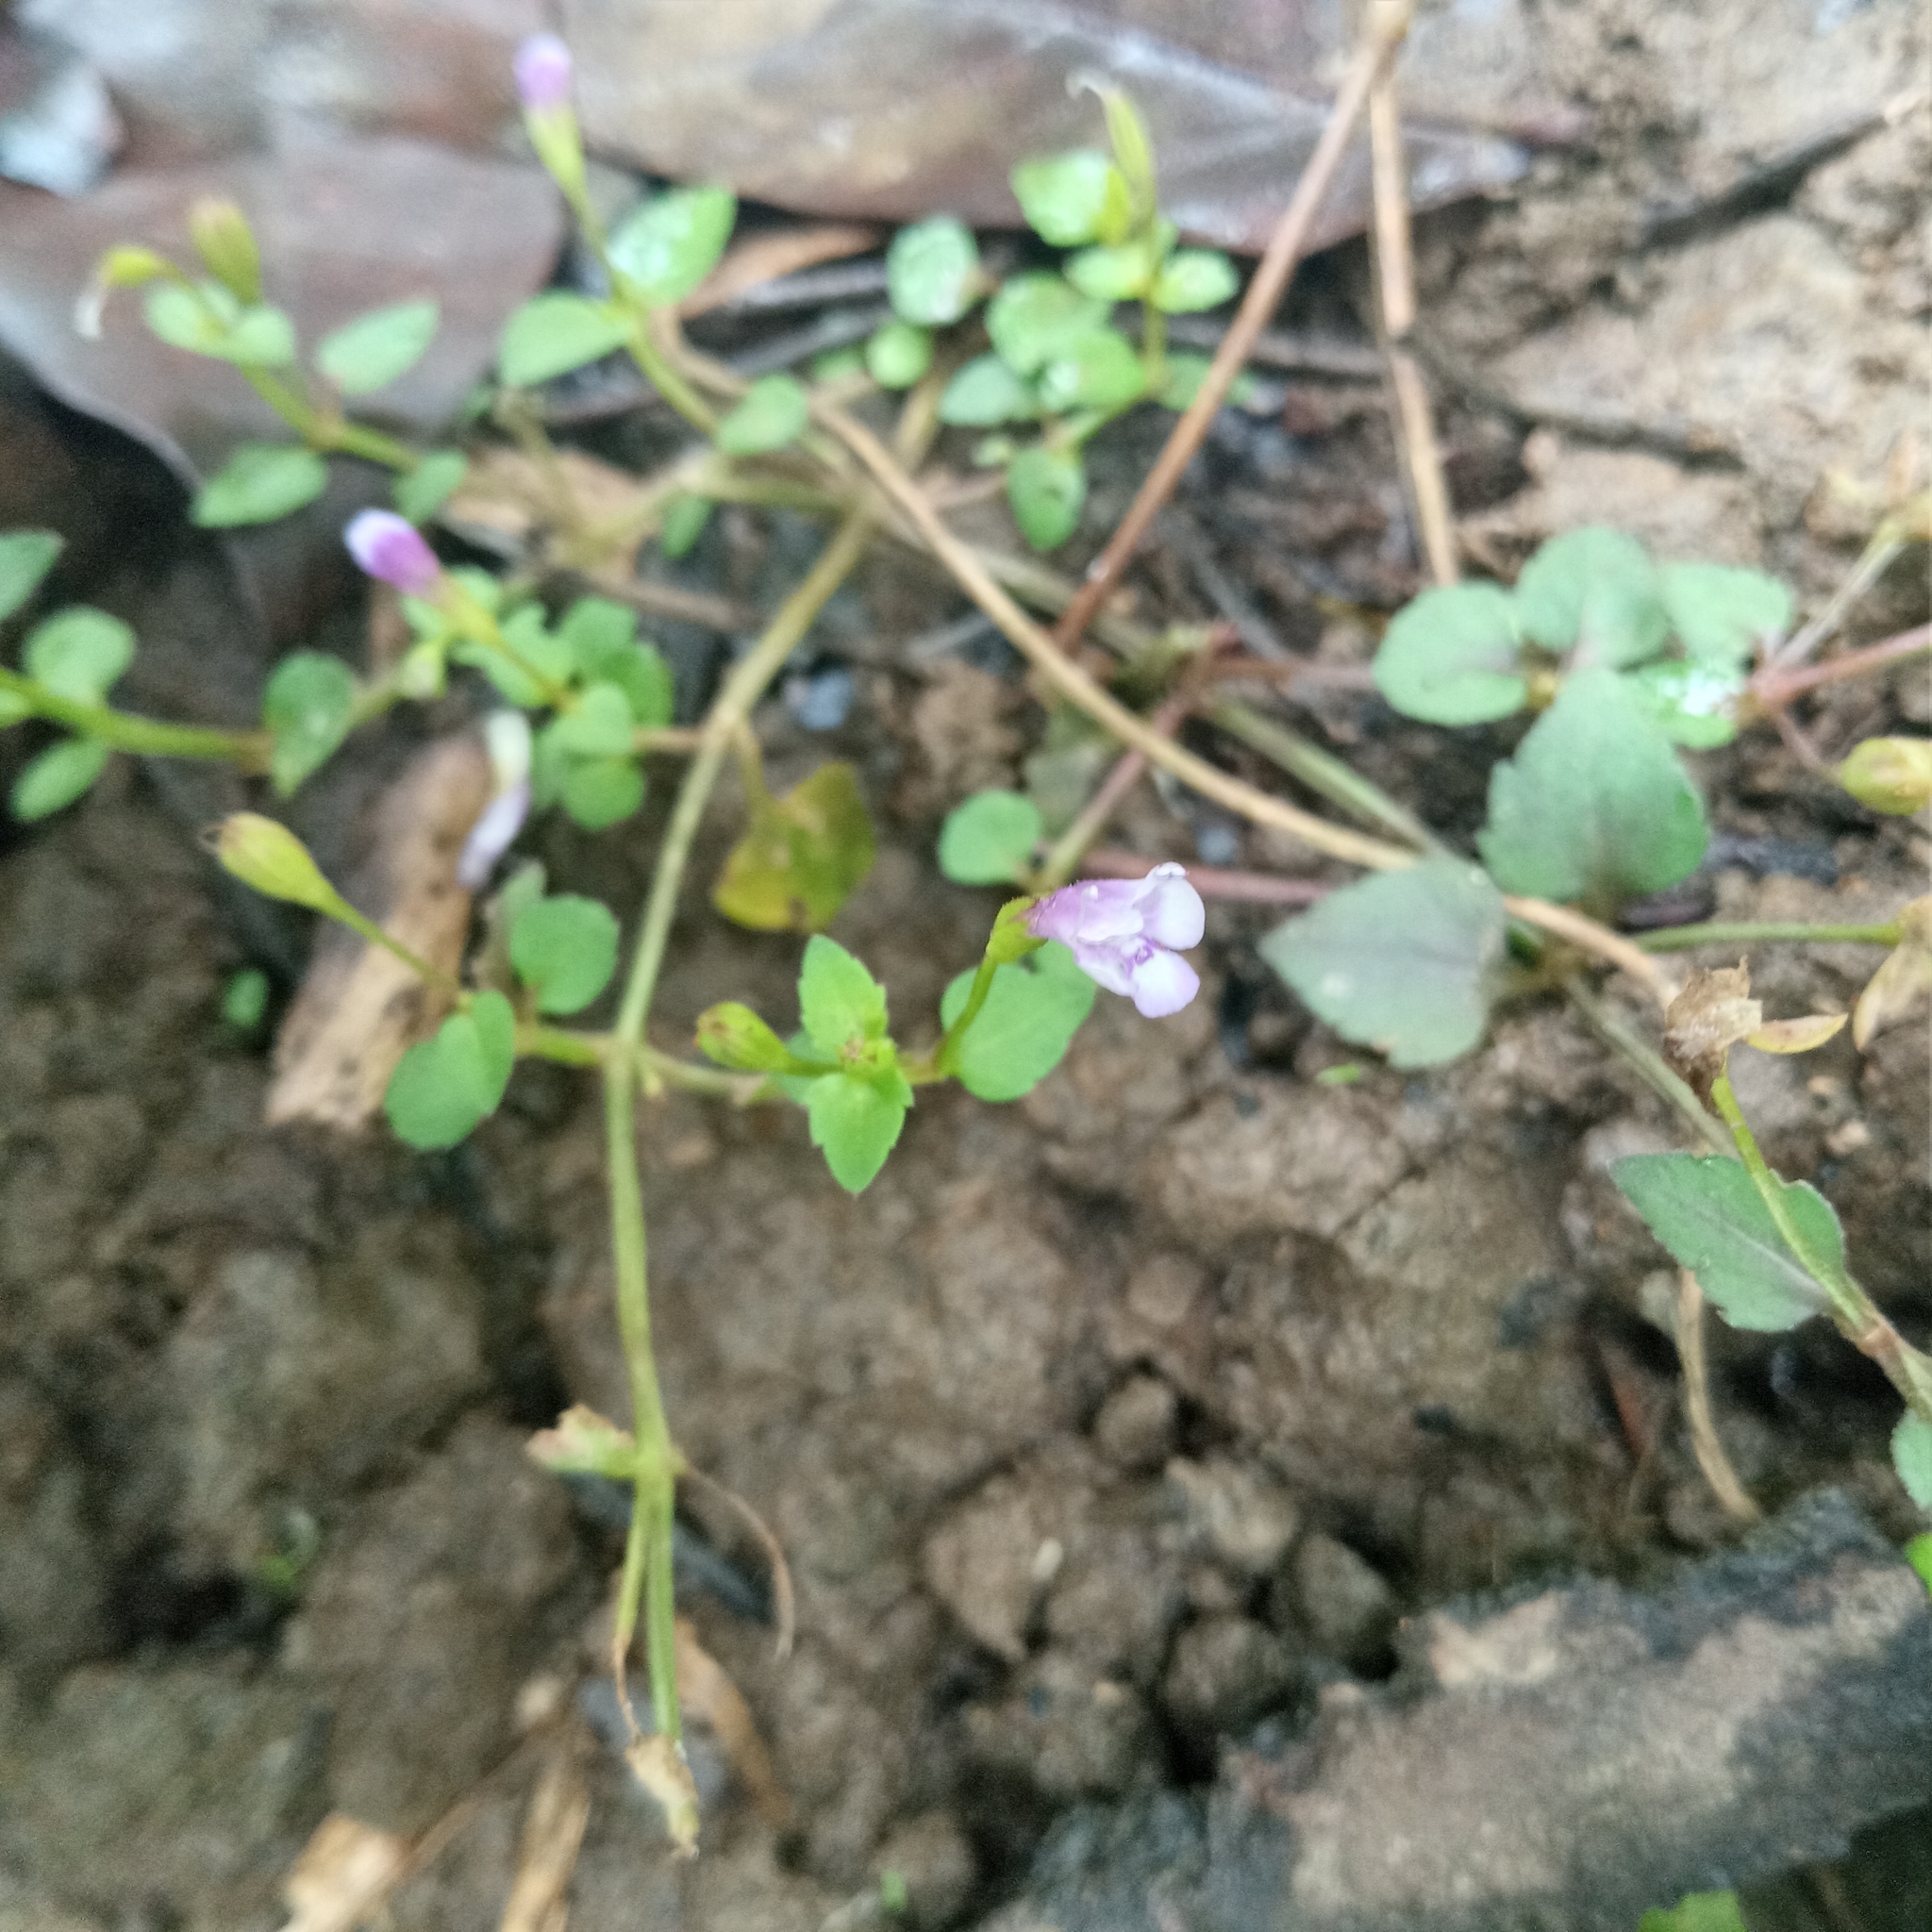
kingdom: Plantae
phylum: Tracheophyta
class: Magnoliopsida
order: Lamiales
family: Linderniaceae
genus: Torenia
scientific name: Torenia crustacea
